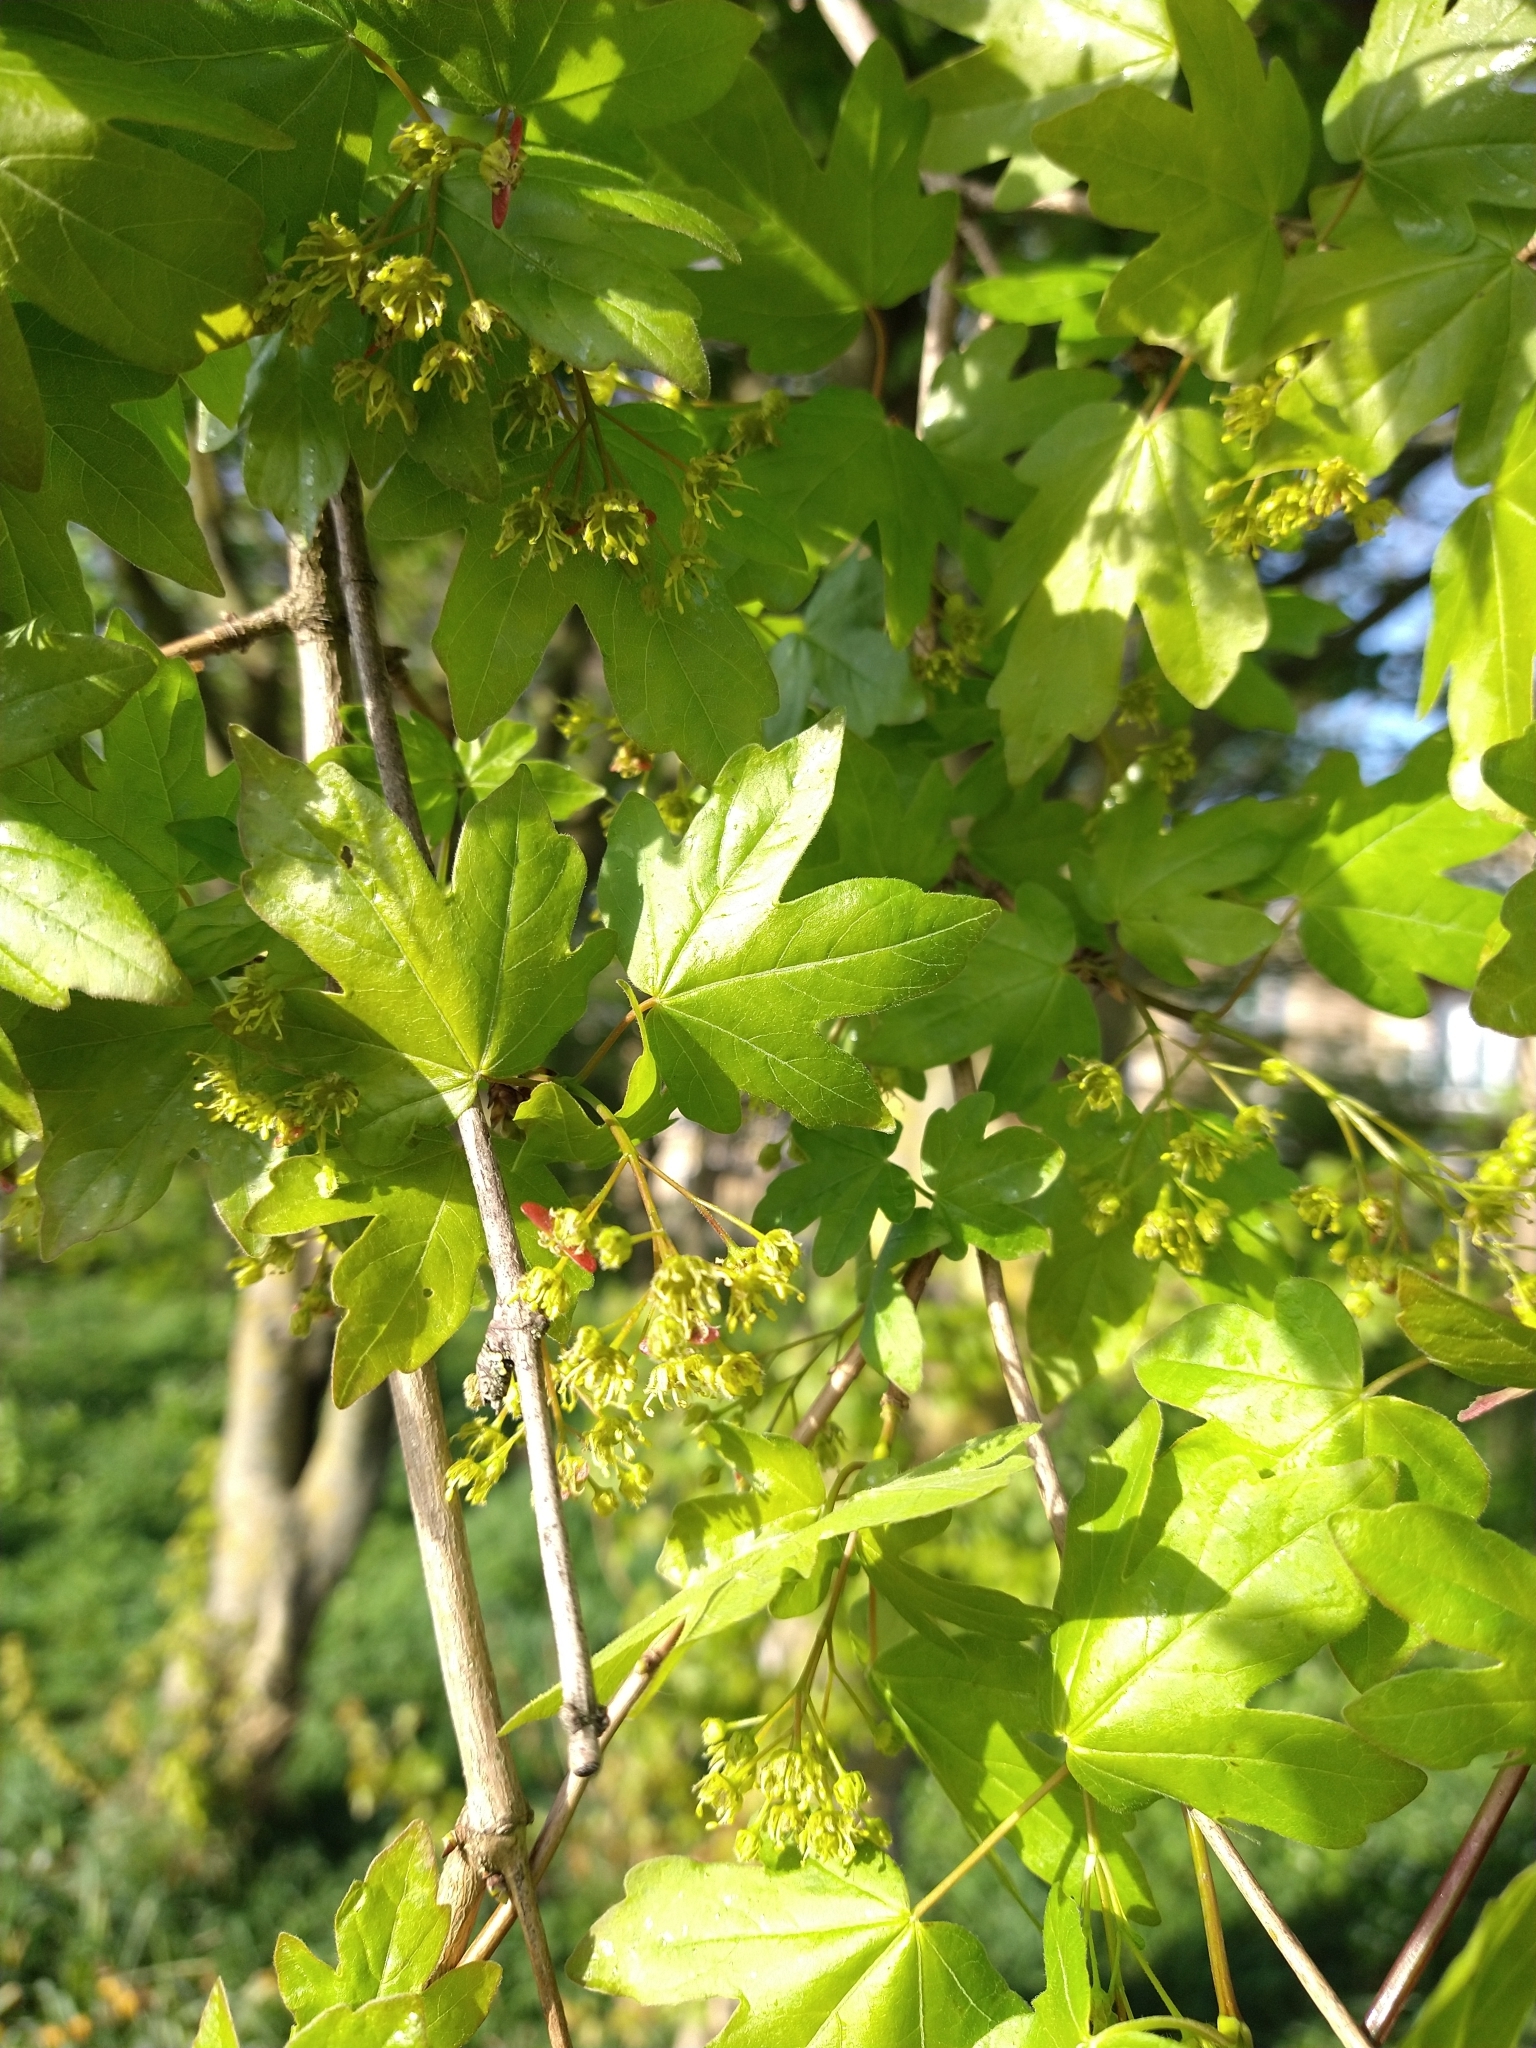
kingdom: Plantae
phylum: Tracheophyta
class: Magnoliopsida
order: Sapindales
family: Sapindaceae
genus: Acer
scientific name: Acer campestre
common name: Field maple
